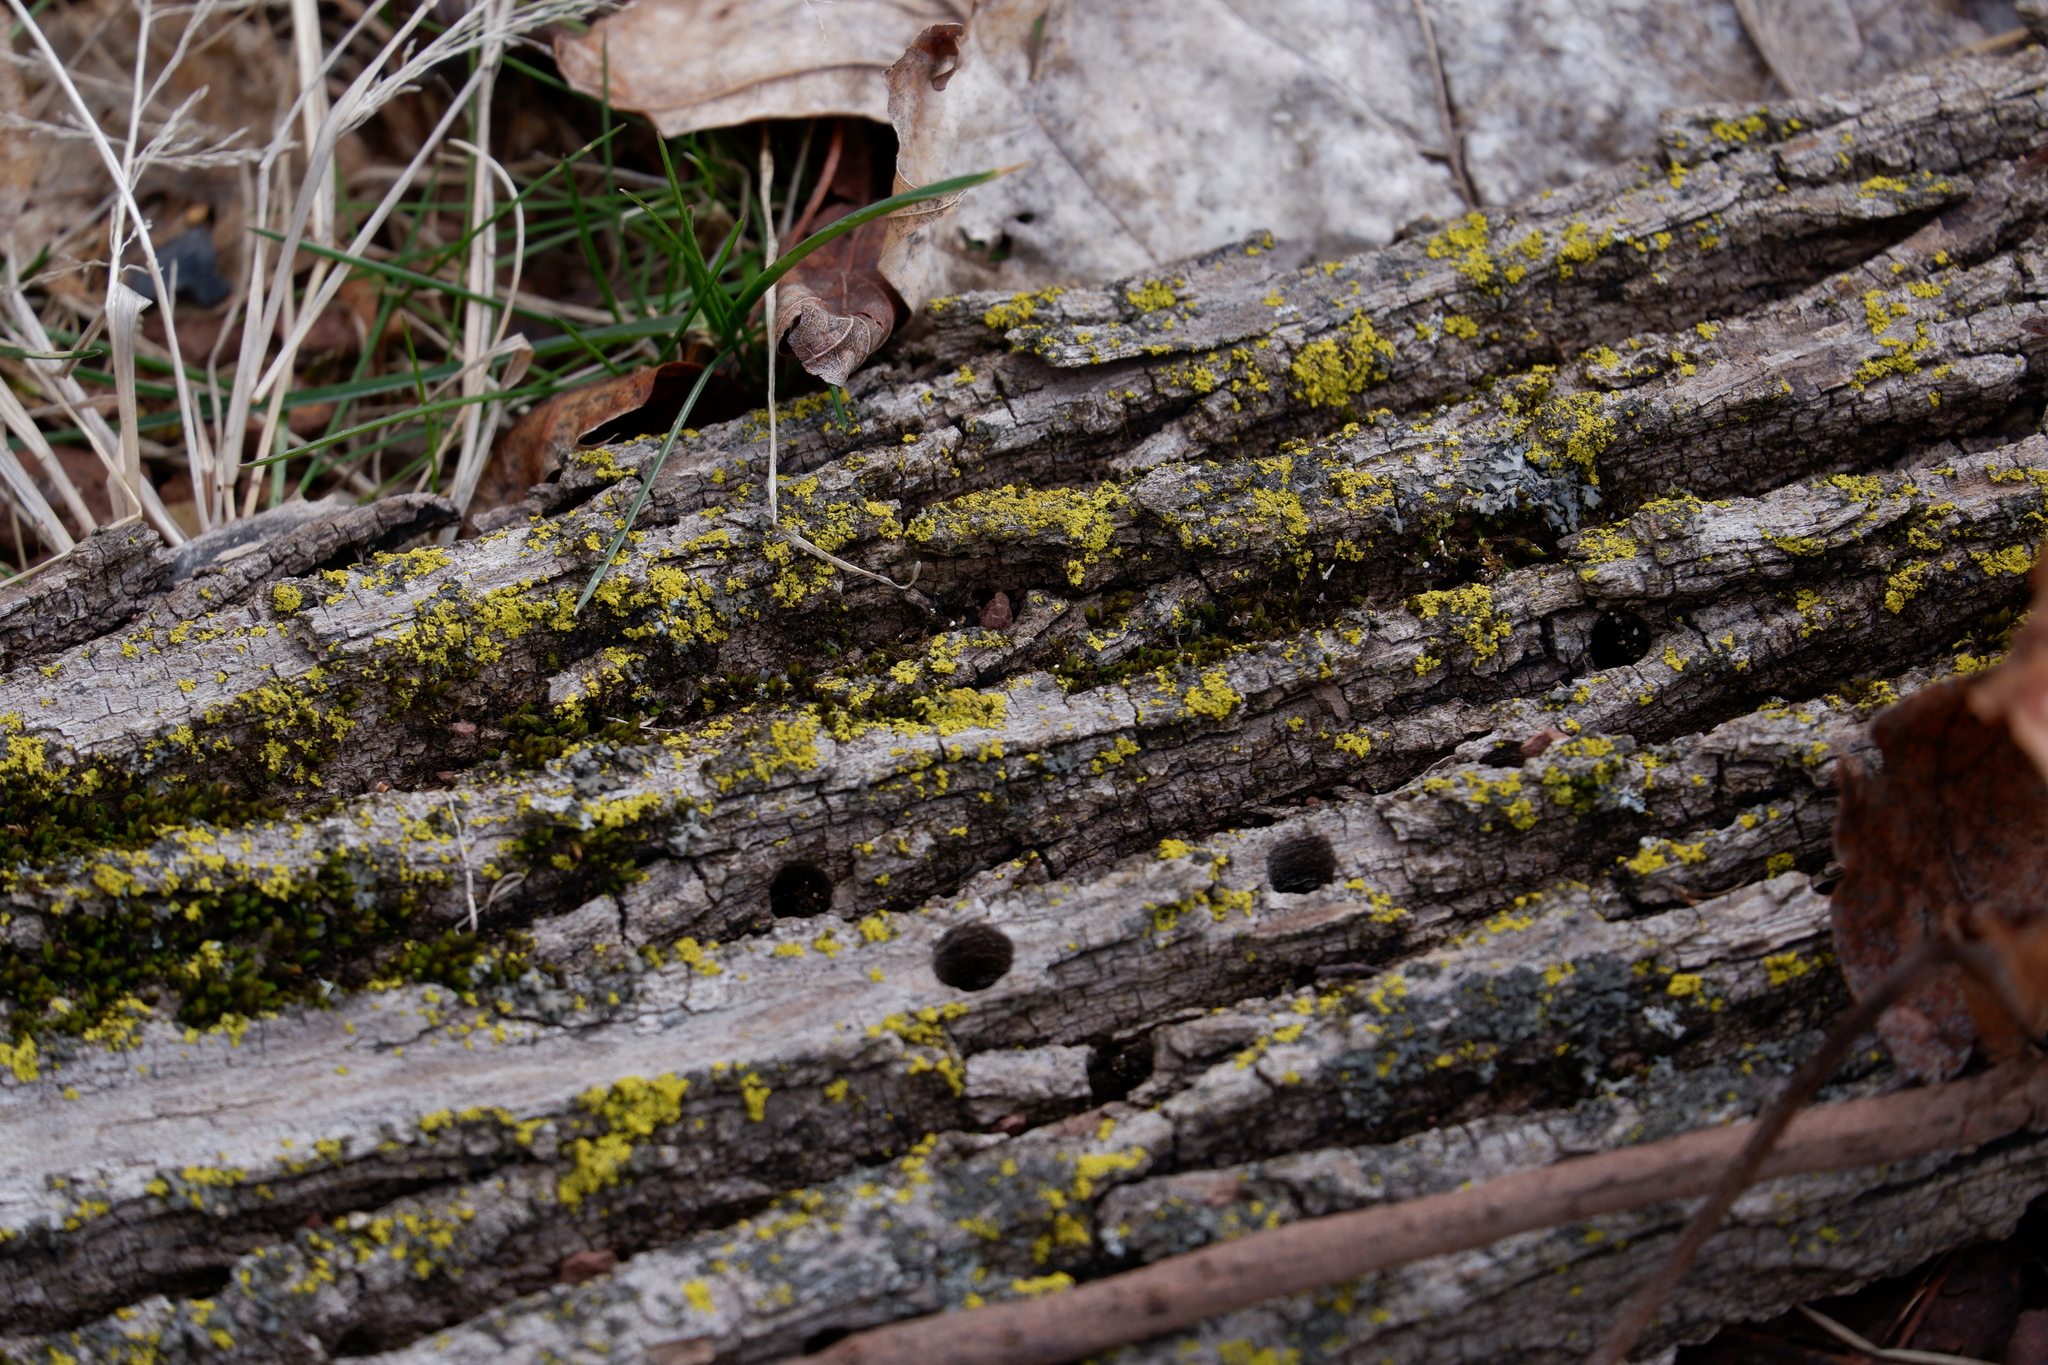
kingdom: Fungi
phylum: Ascomycota
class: Candelariomycetes
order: Candelariales
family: Candelariaceae
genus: Candelaria
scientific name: Candelaria concolor
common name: Candleflame lichen
